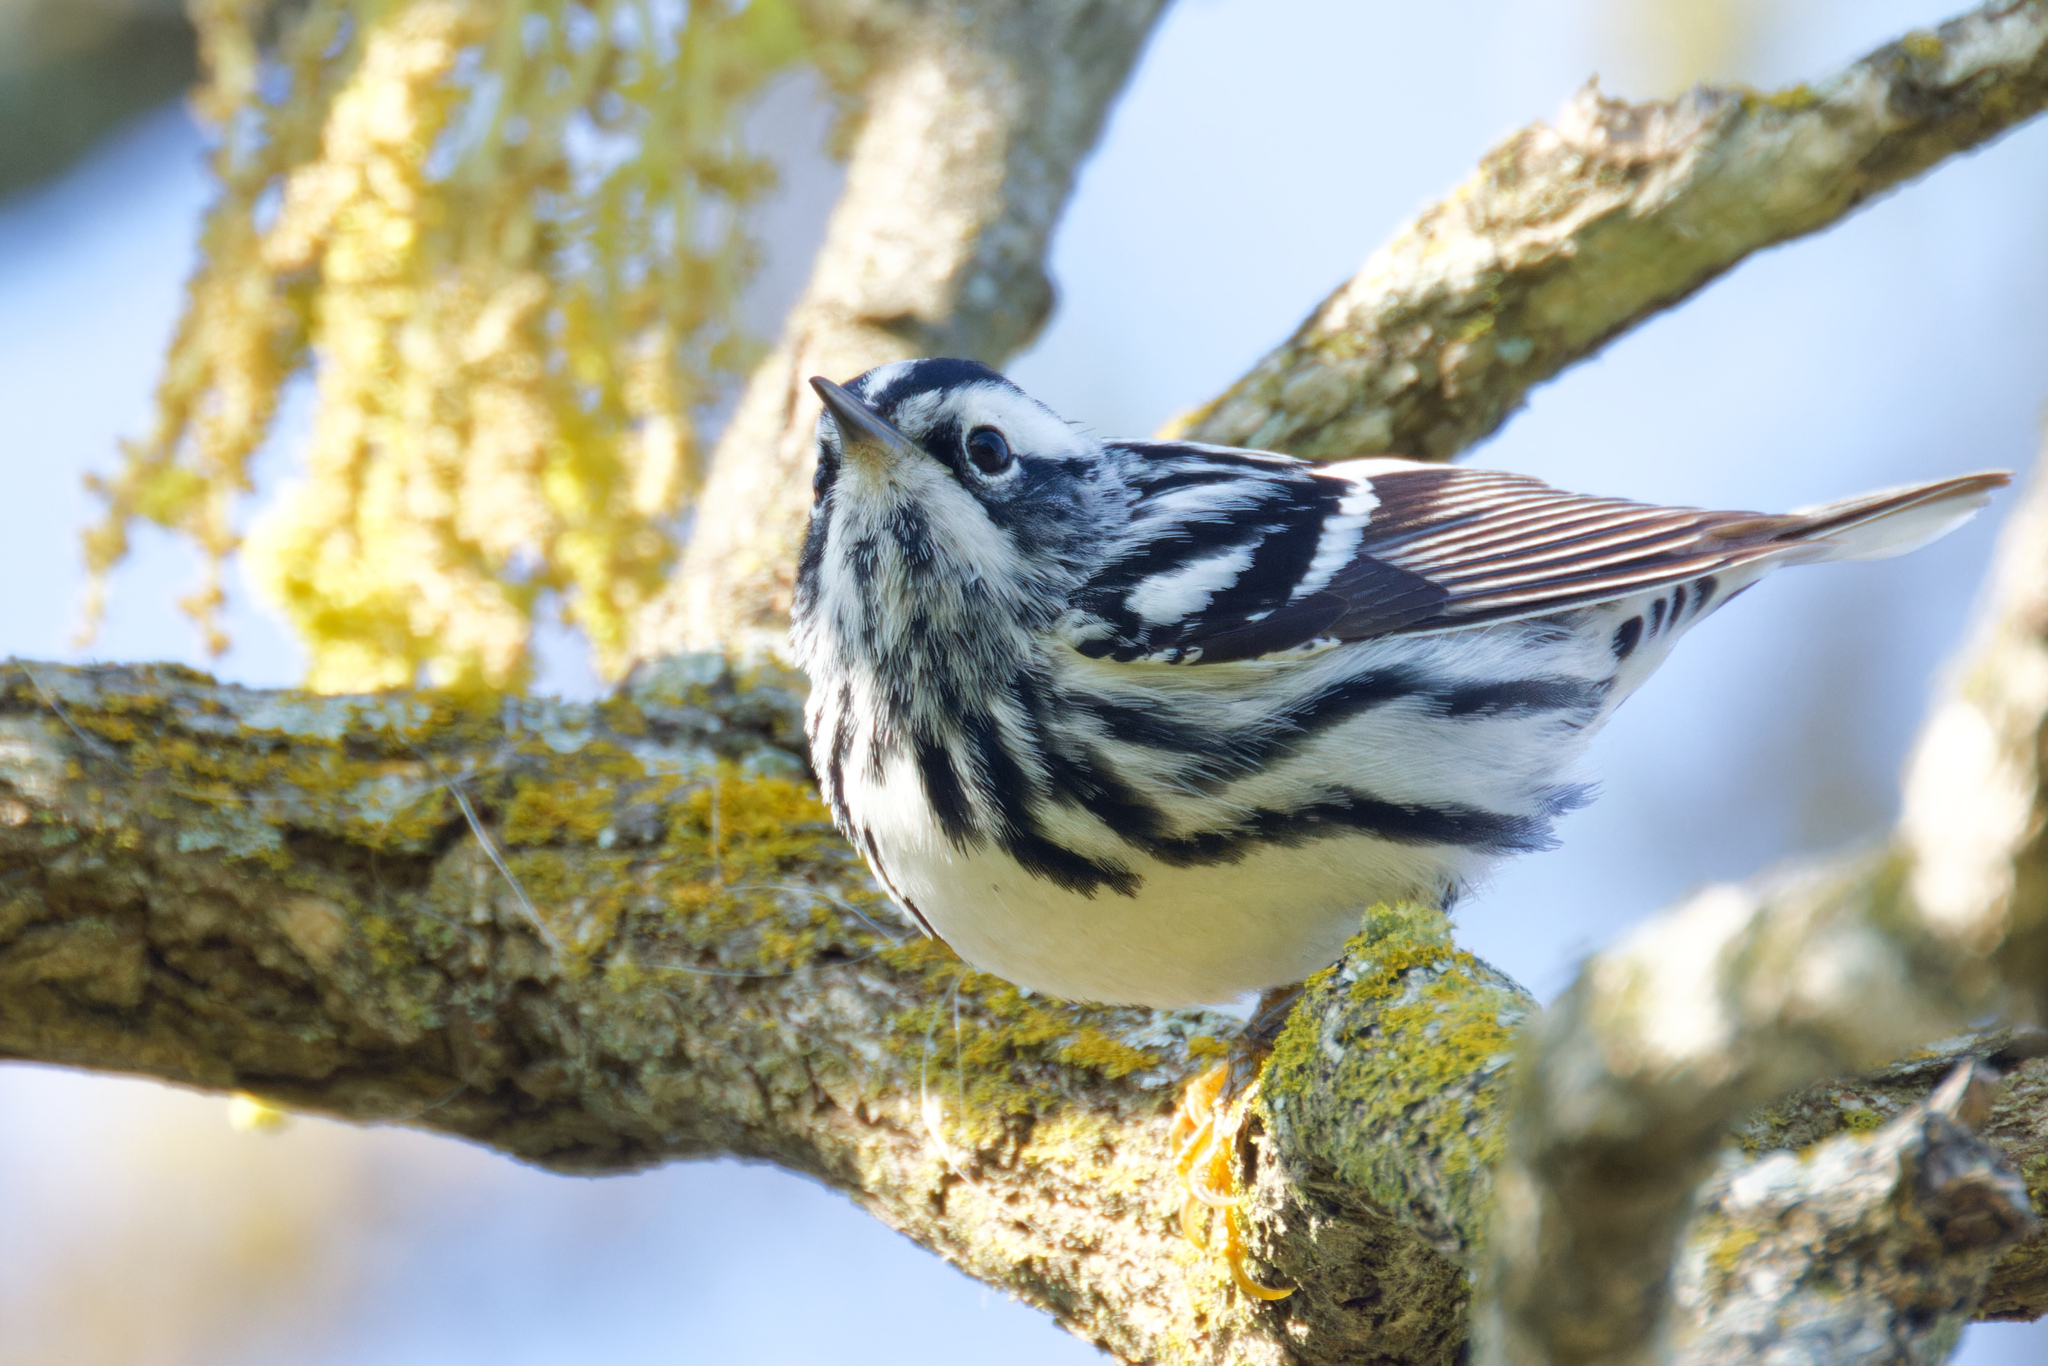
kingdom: Animalia
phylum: Chordata
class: Aves
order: Passeriformes
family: Parulidae
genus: Mniotilta
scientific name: Mniotilta varia
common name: Black-and-white warbler
